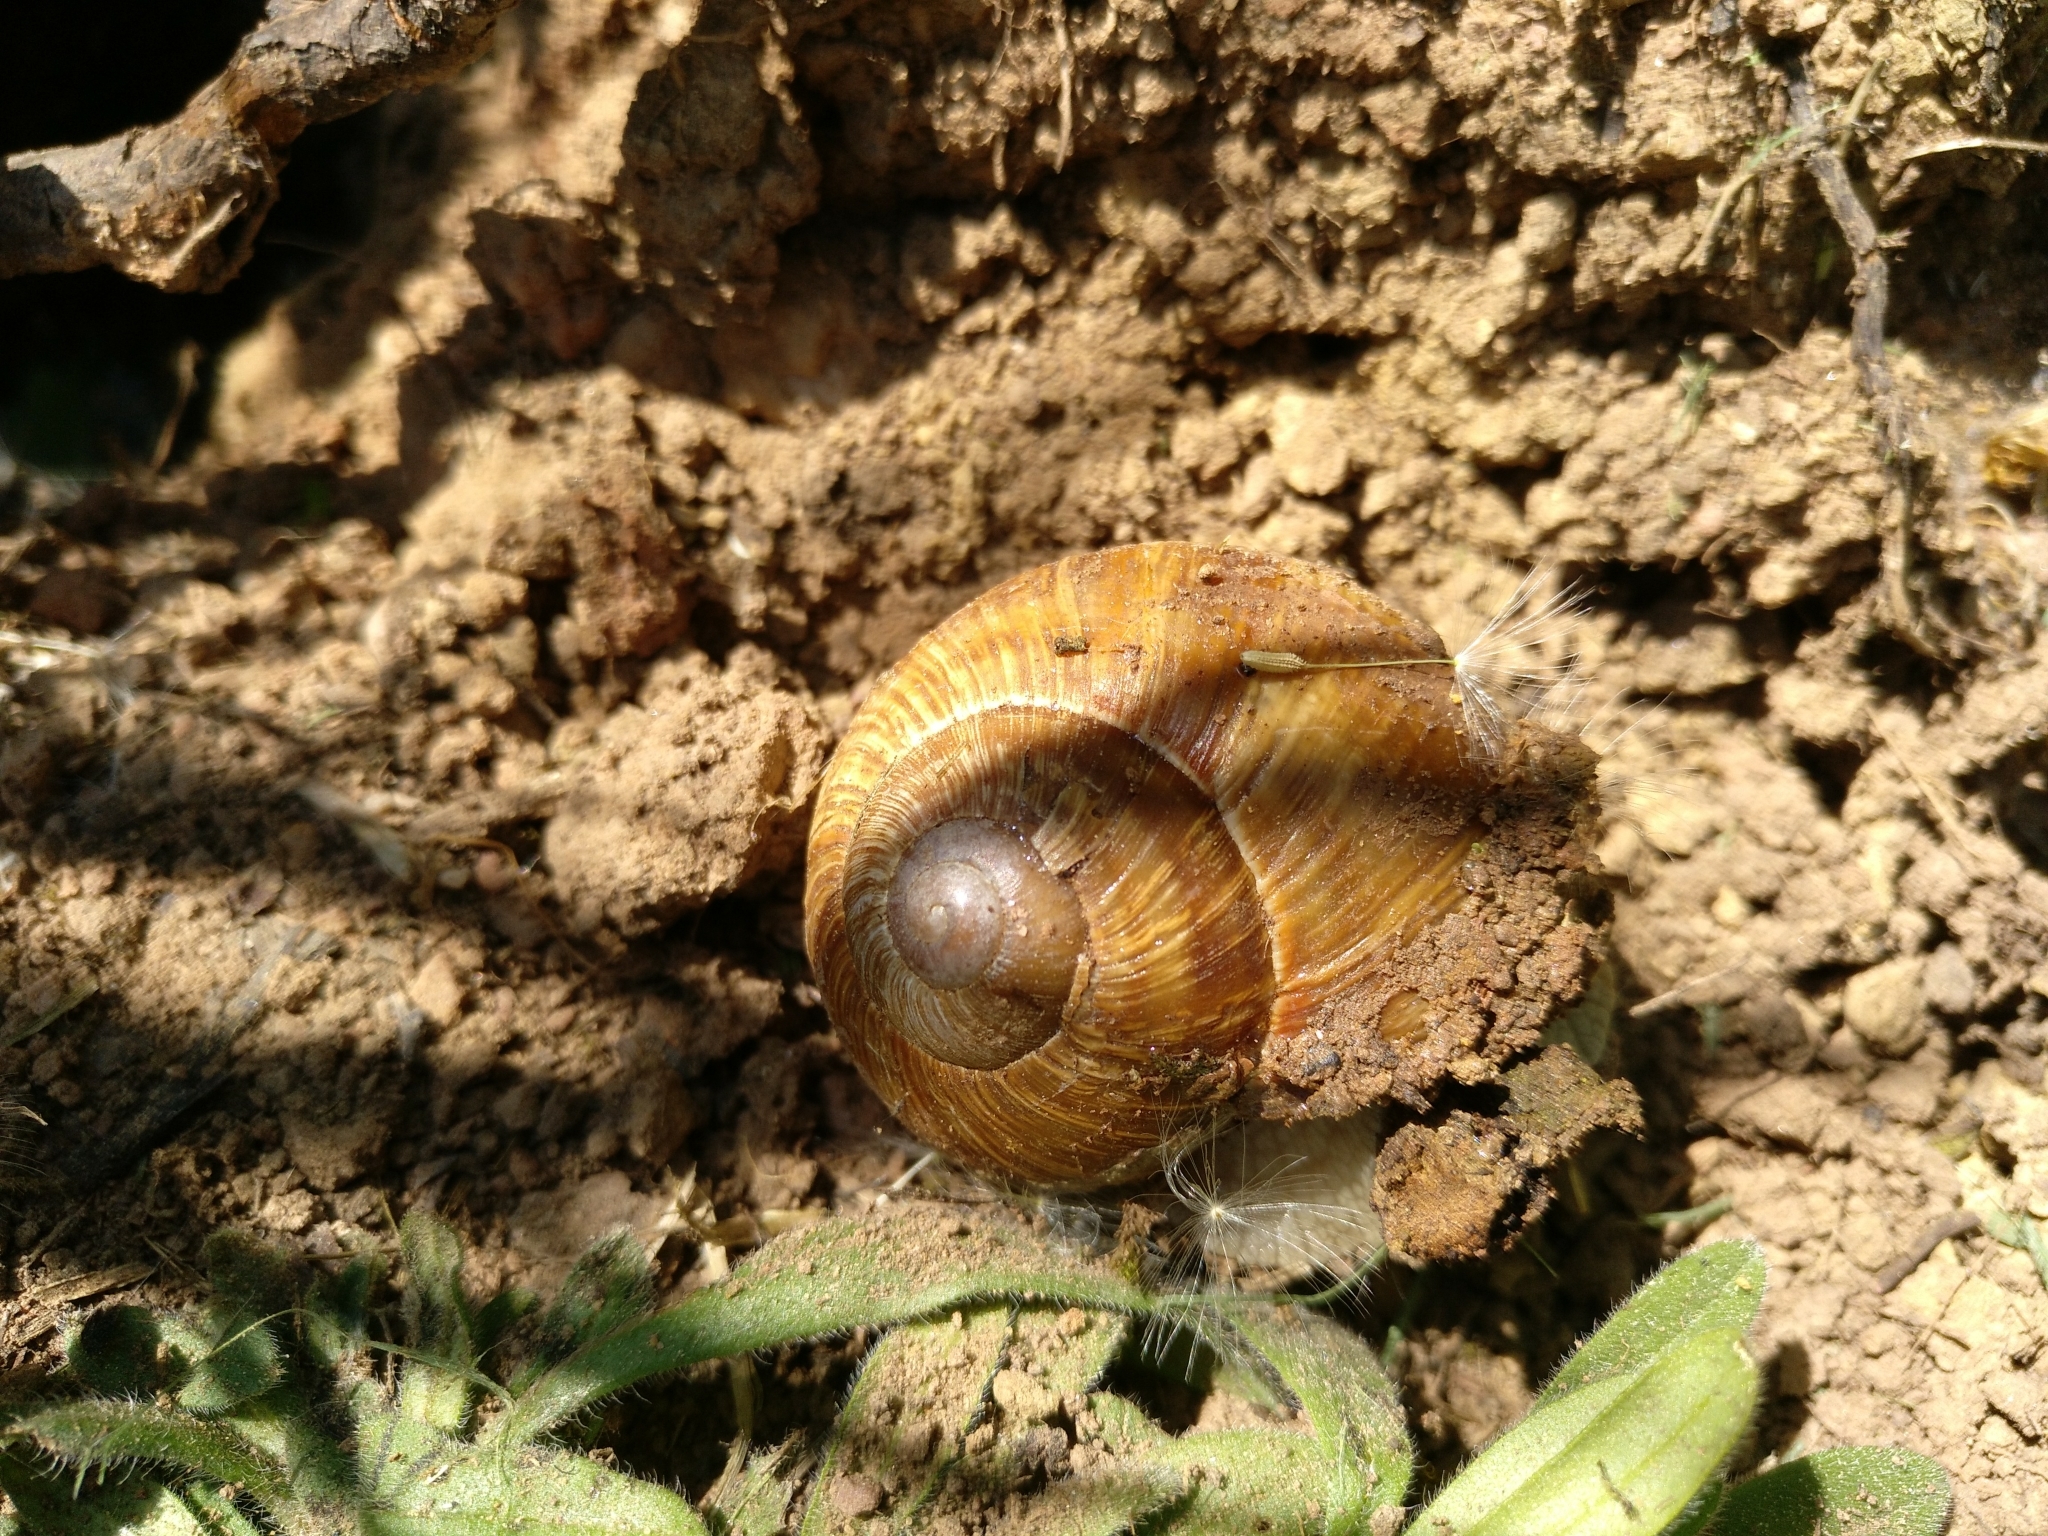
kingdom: Animalia
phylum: Mollusca
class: Gastropoda
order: Stylommatophora
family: Helicidae
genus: Helix
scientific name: Helix pomatia
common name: Roman snail
